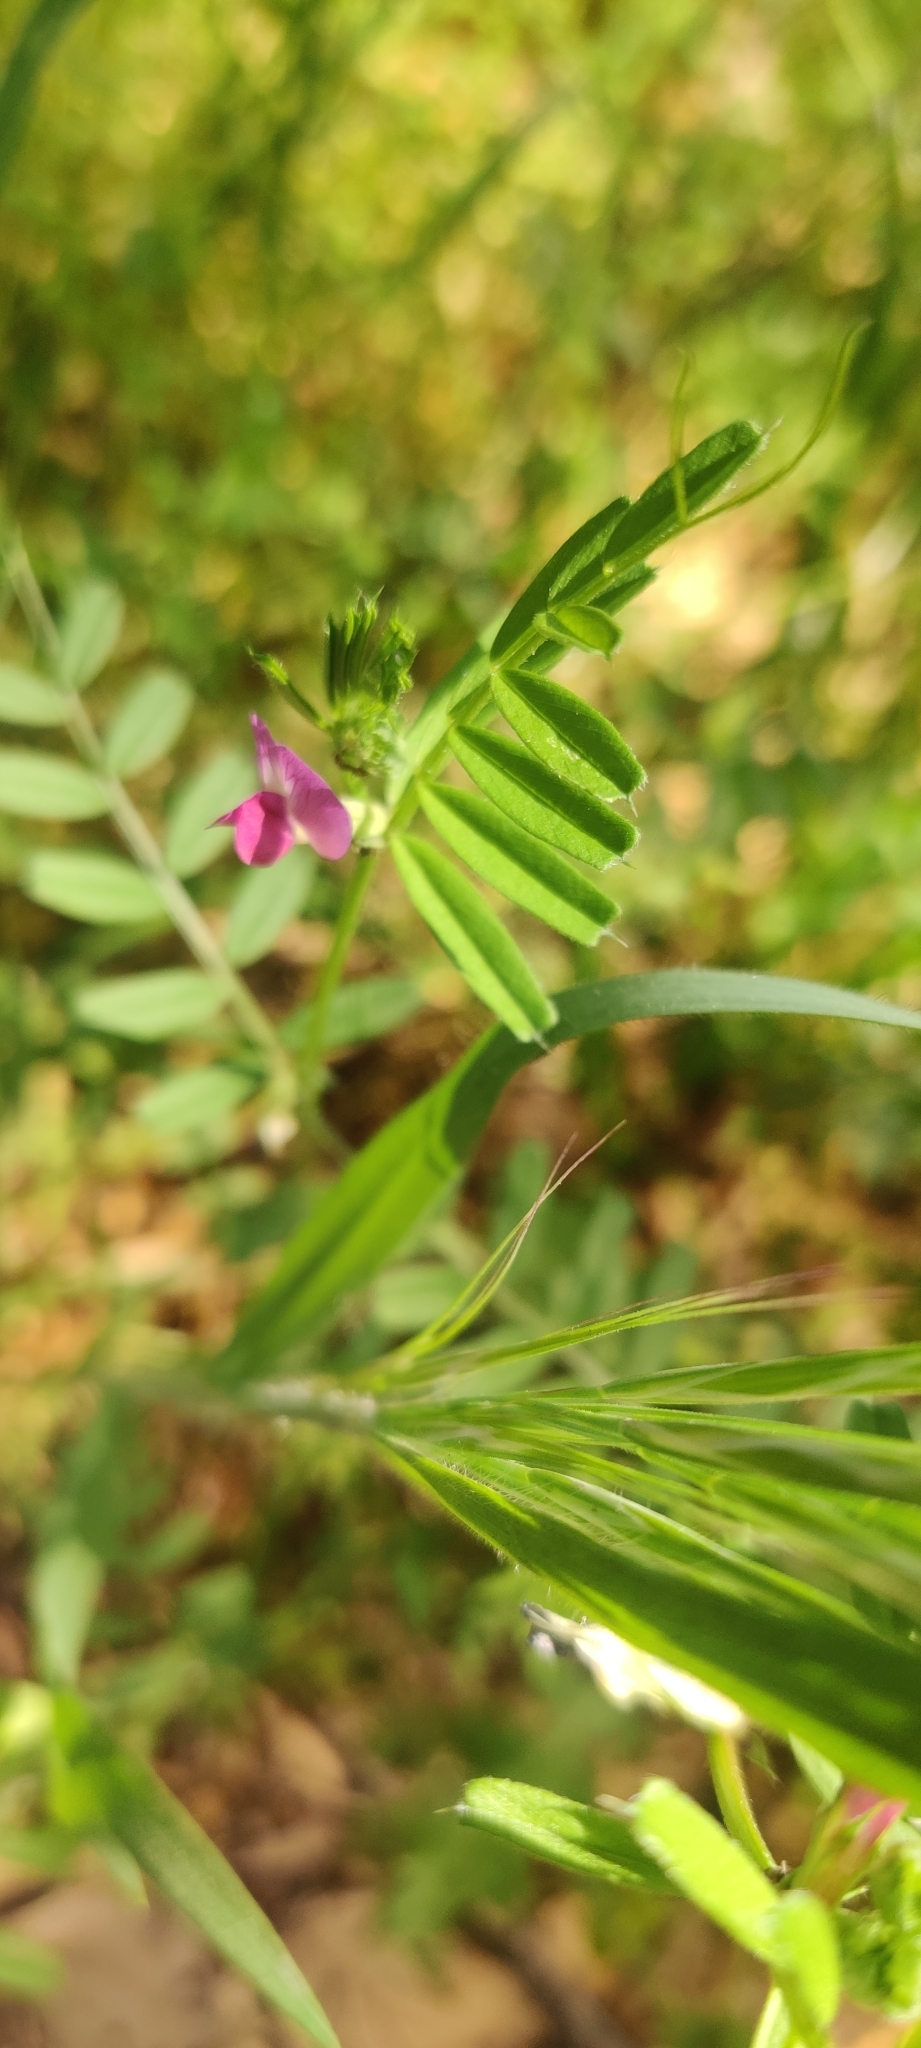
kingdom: Plantae
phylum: Tracheophyta
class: Magnoliopsida
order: Fabales
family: Fabaceae
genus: Vicia
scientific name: Vicia sativa
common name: Garden vetch
